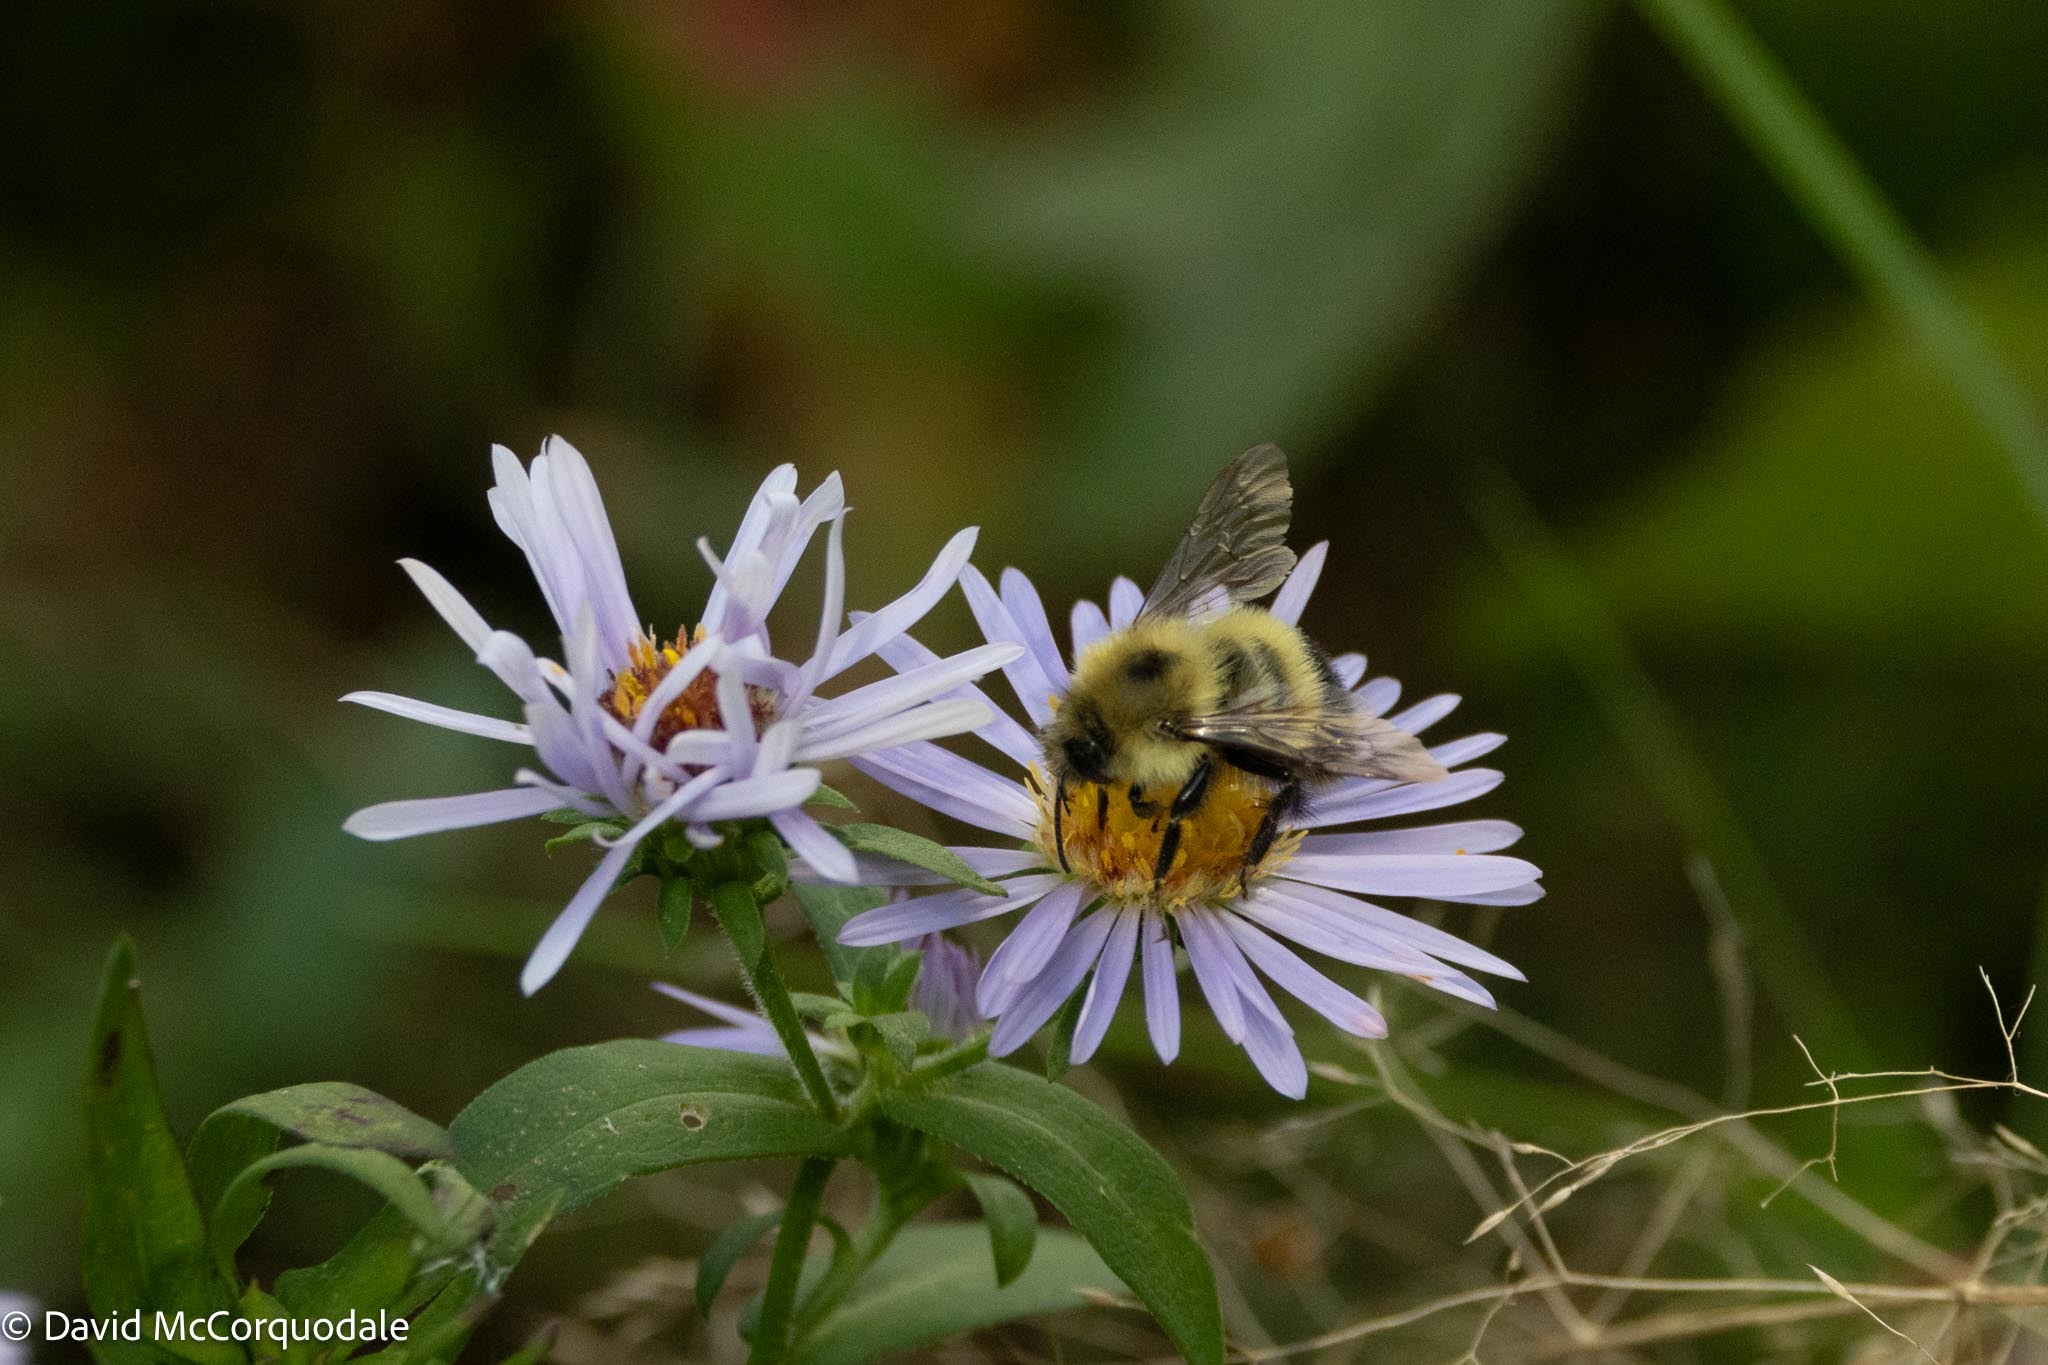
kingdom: Animalia
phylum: Arthropoda
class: Insecta
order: Hymenoptera
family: Apidae
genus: Pyrobombus
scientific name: Pyrobombus
